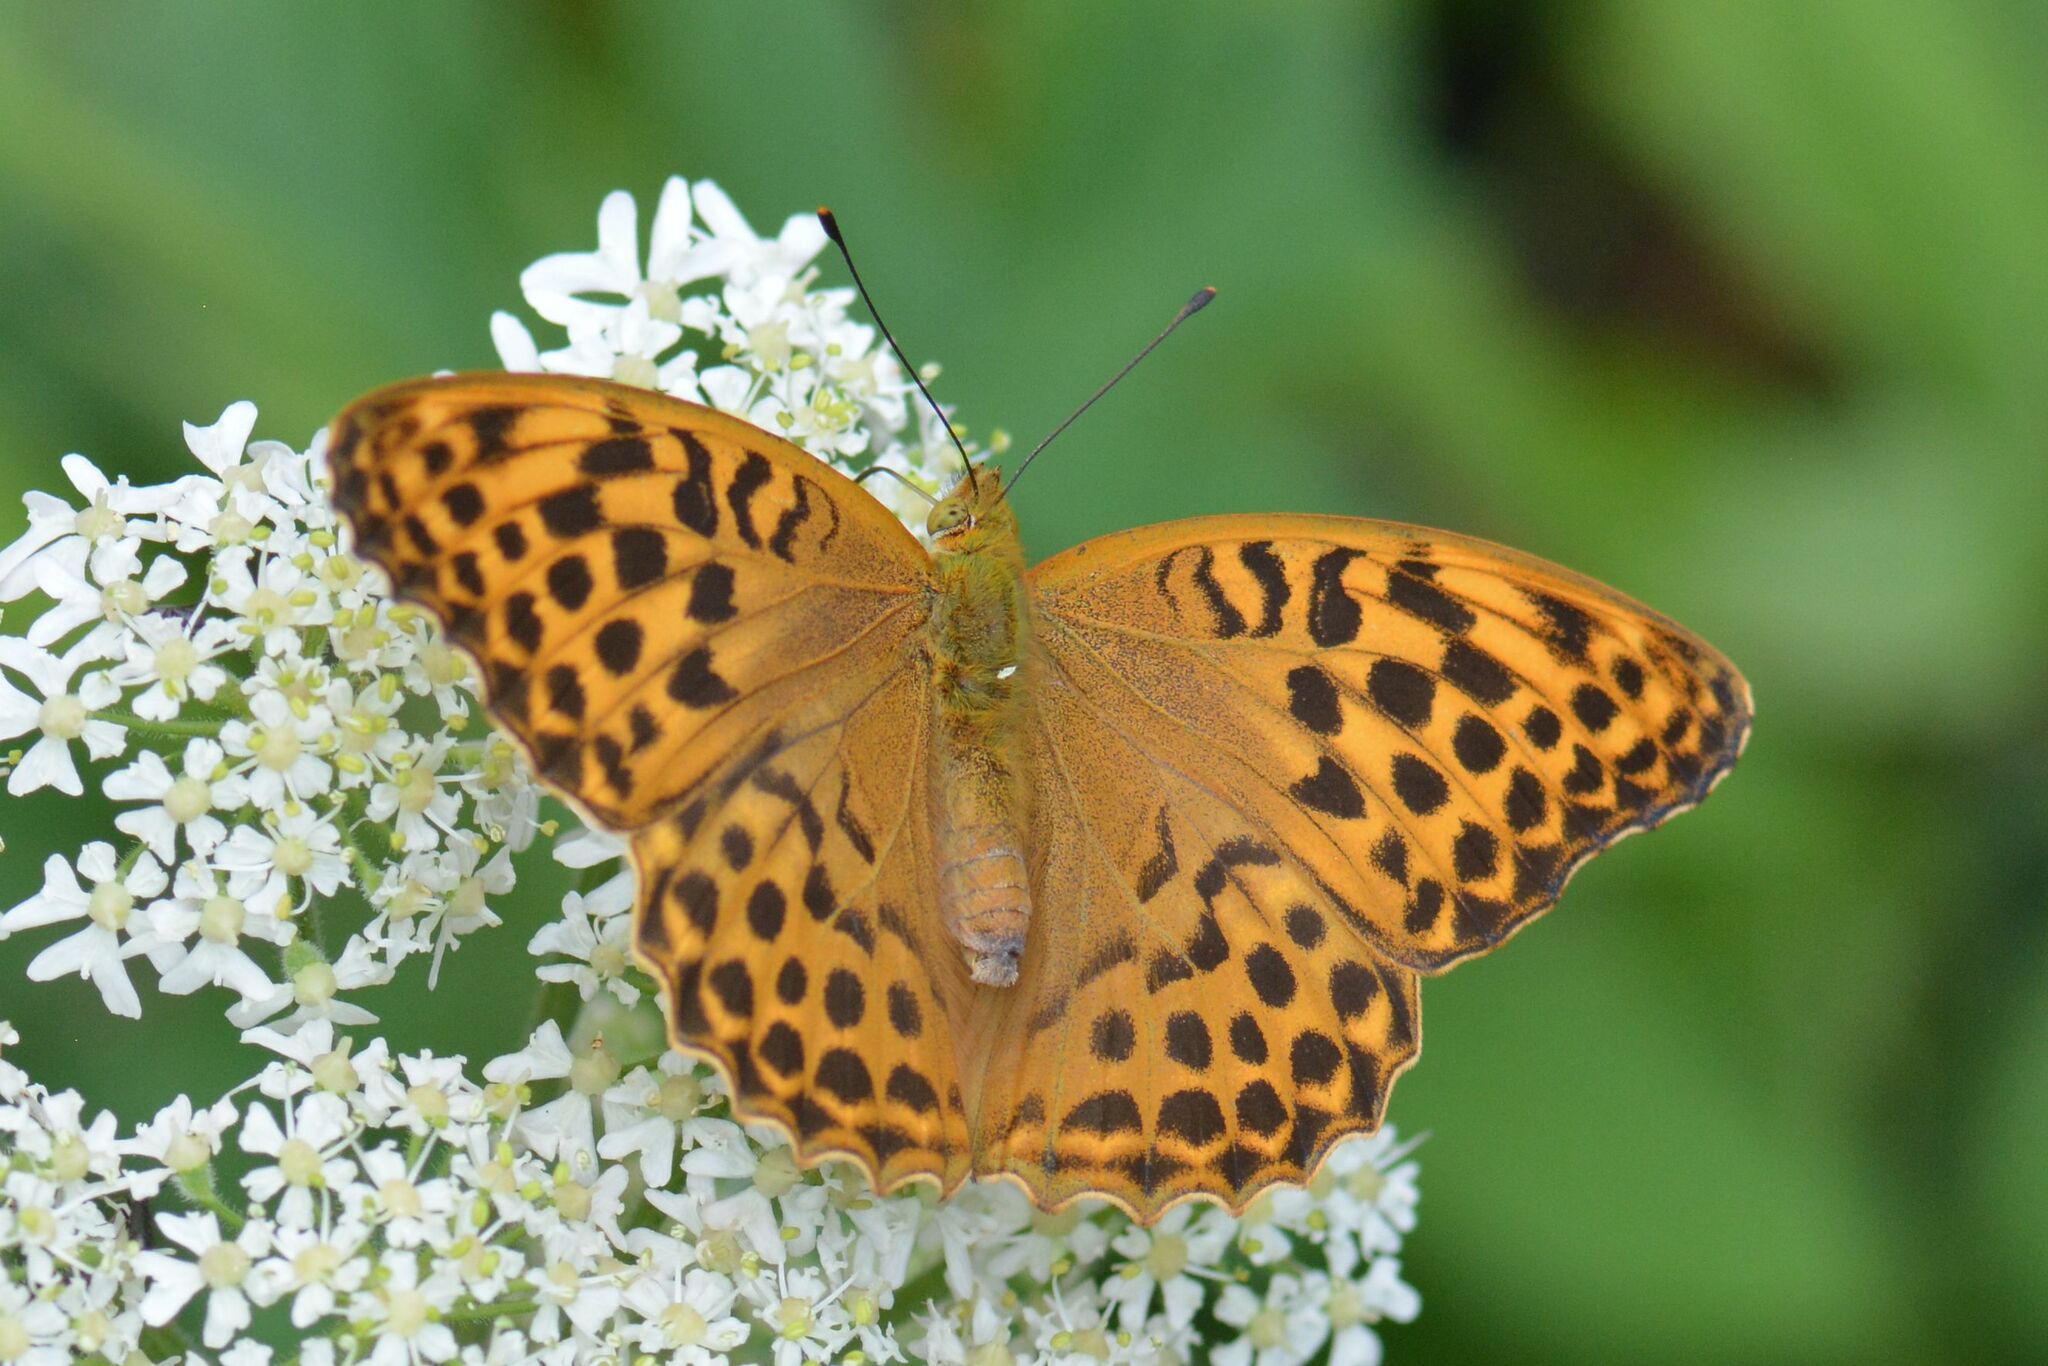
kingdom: Animalia
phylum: Arthropoda
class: Insecta
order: Lepidoptera
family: Nymphalidae
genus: Argynnis
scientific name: Argynnis paphia
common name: Silver-washed fritillary
